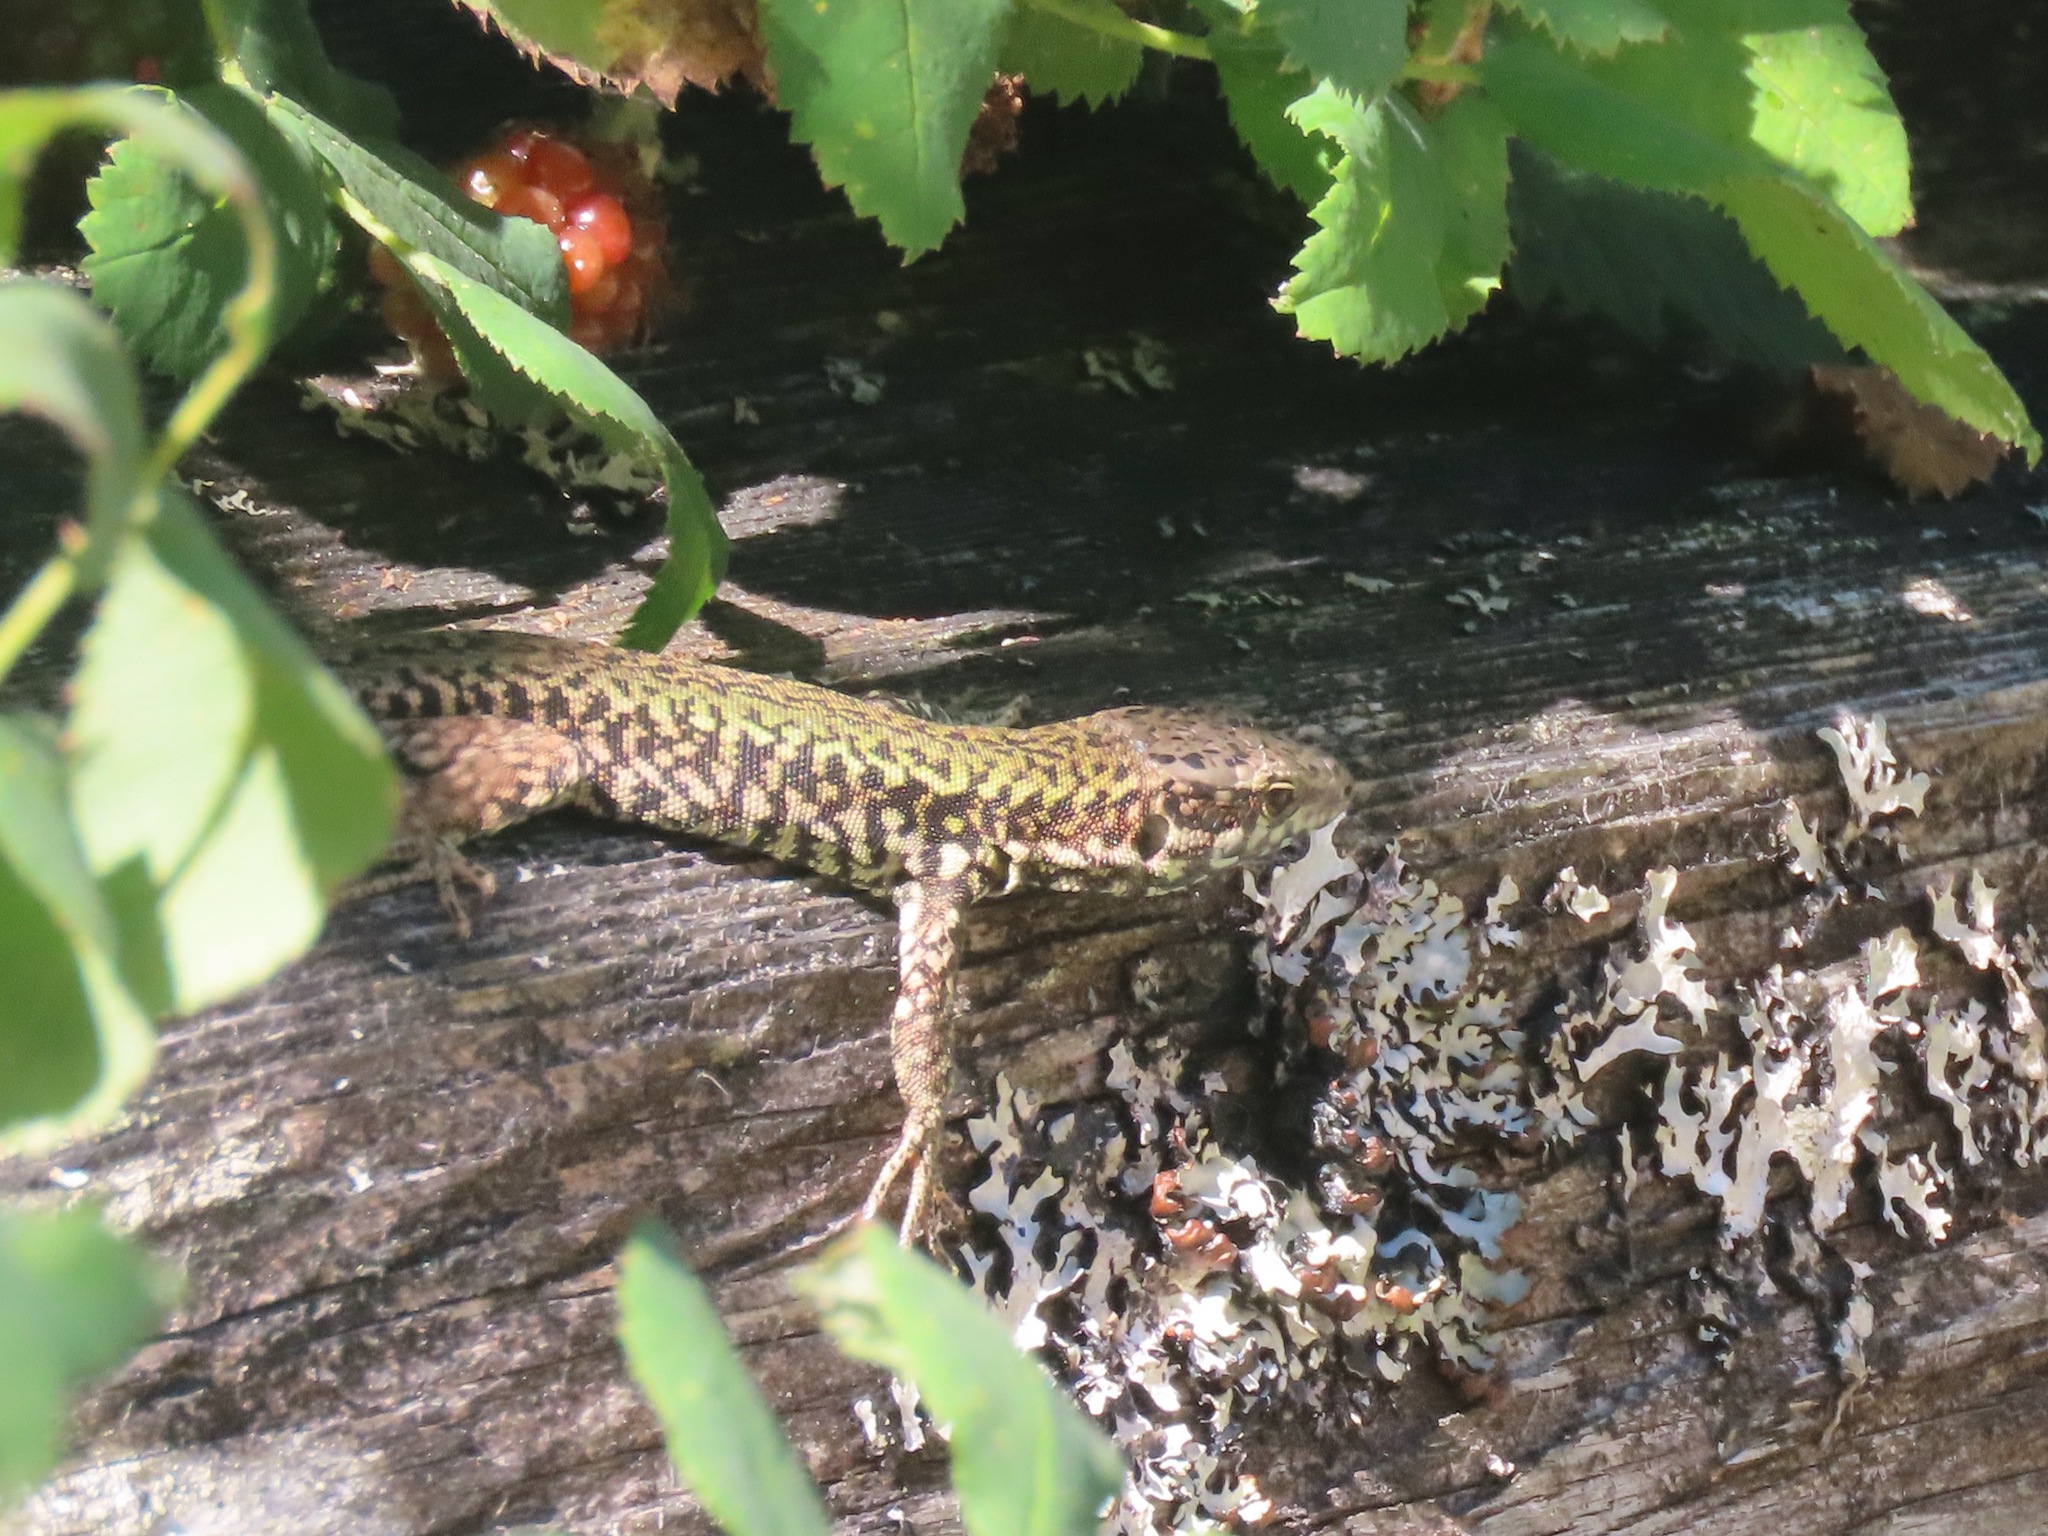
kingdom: Animalia
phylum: Chordata
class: Squamata
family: Lacertidae
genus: Podarcis
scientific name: Podarcis muralis
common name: Common wall lizard
